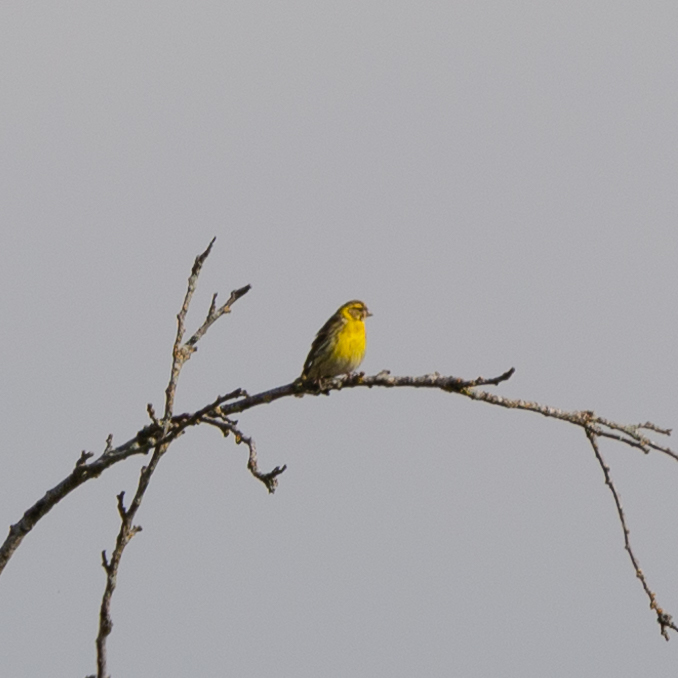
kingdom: Animalia
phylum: Chordata
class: Aves
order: Passeriformes
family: Fringillidae
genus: Serinus
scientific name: Serinus serinus
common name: European serin
